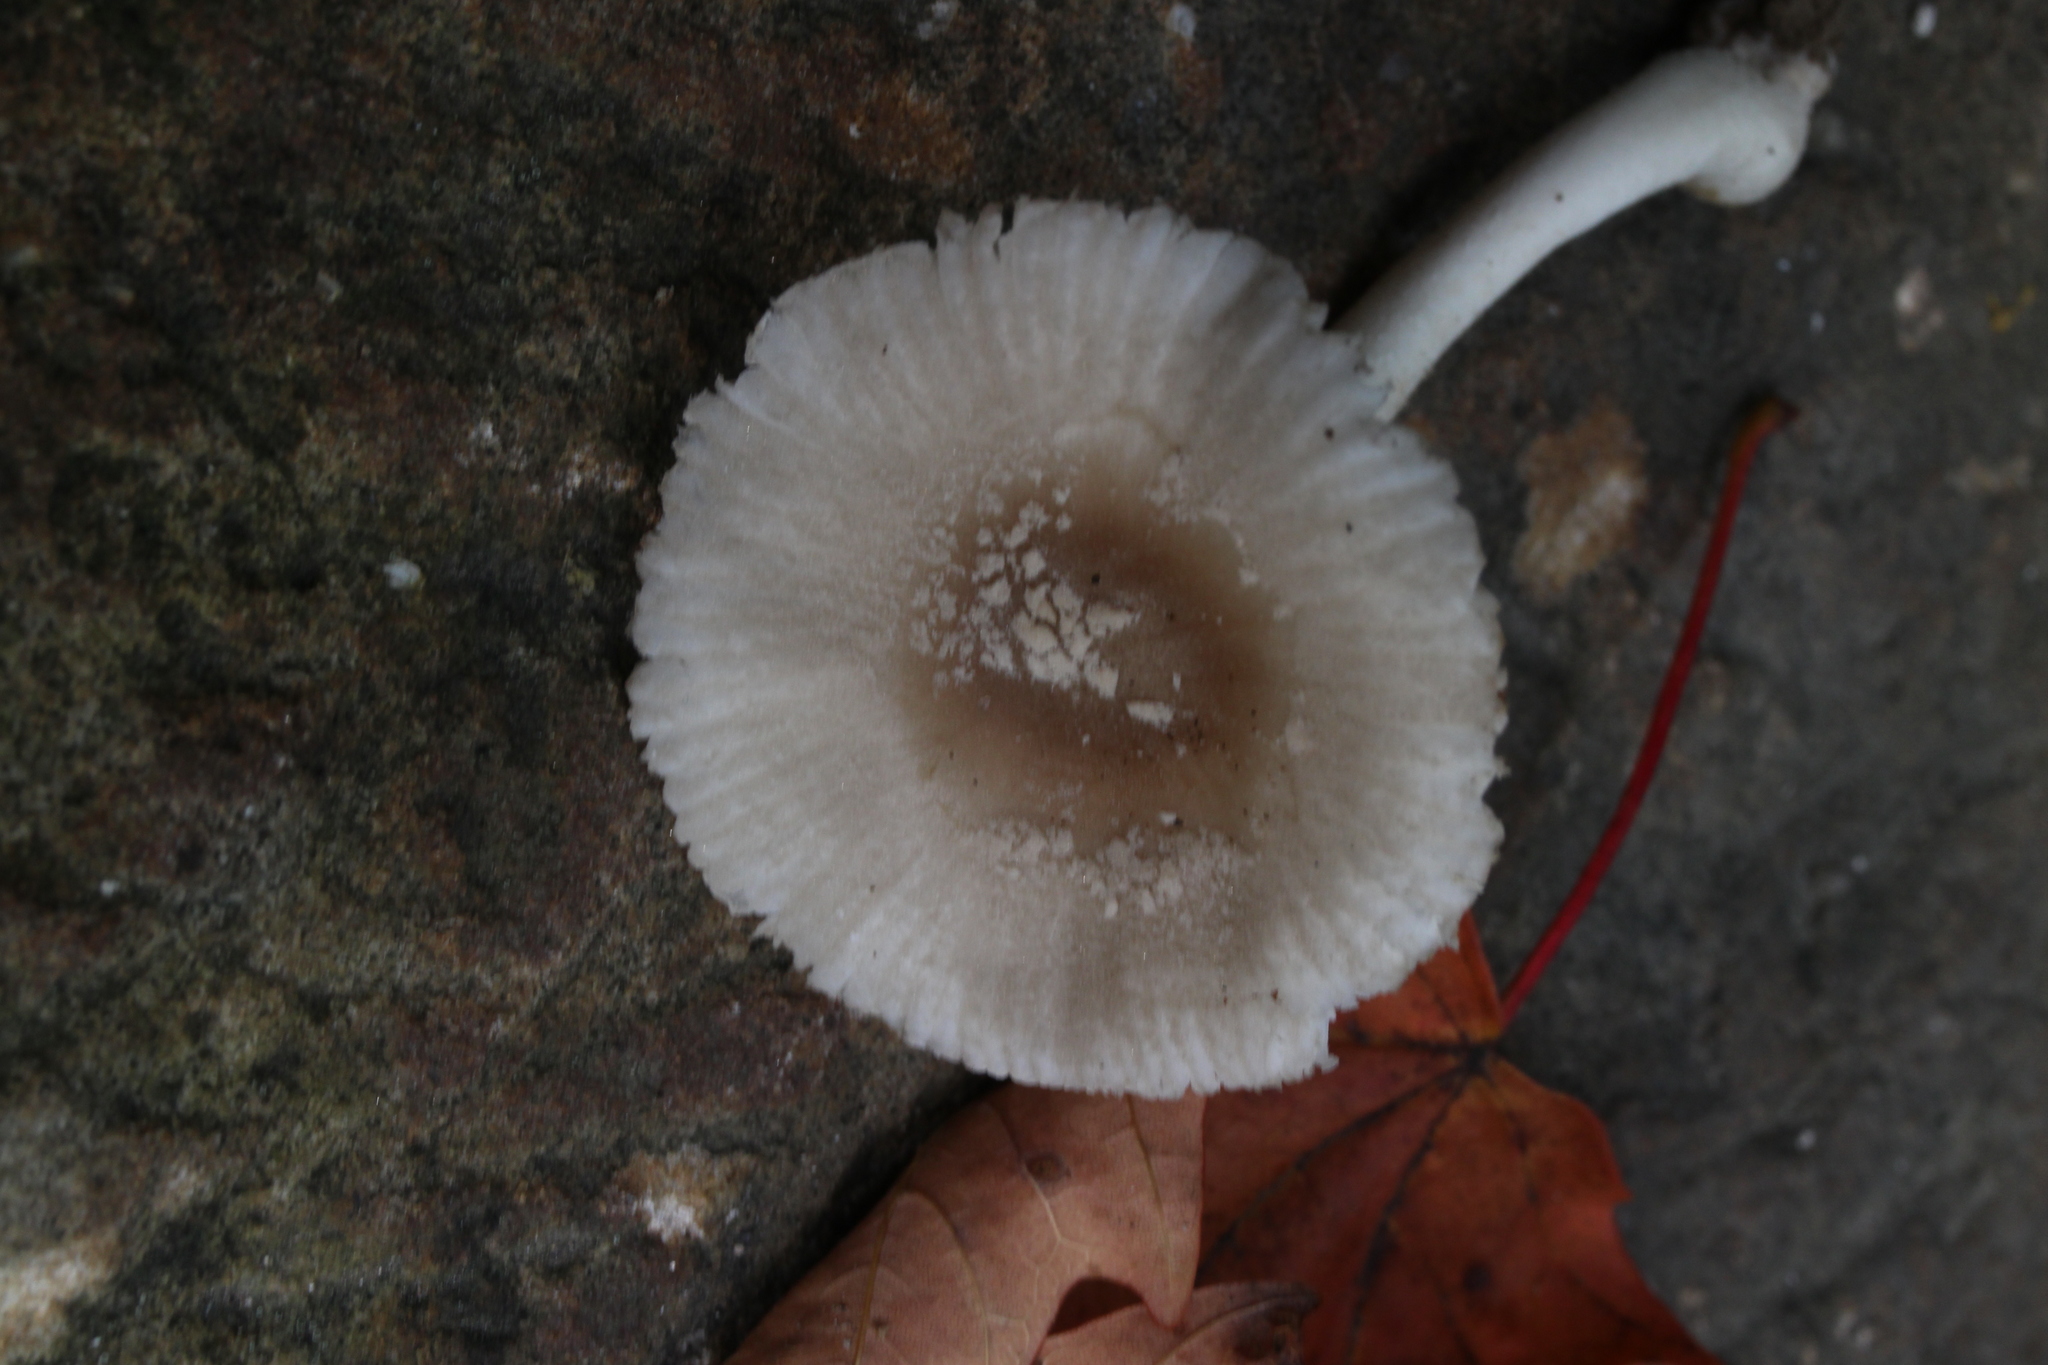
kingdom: Fungi
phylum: Basidiomycota
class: Agaricomycetes
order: Agaricales
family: Amanitaceae
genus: Amanita
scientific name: Amanita farinosa
